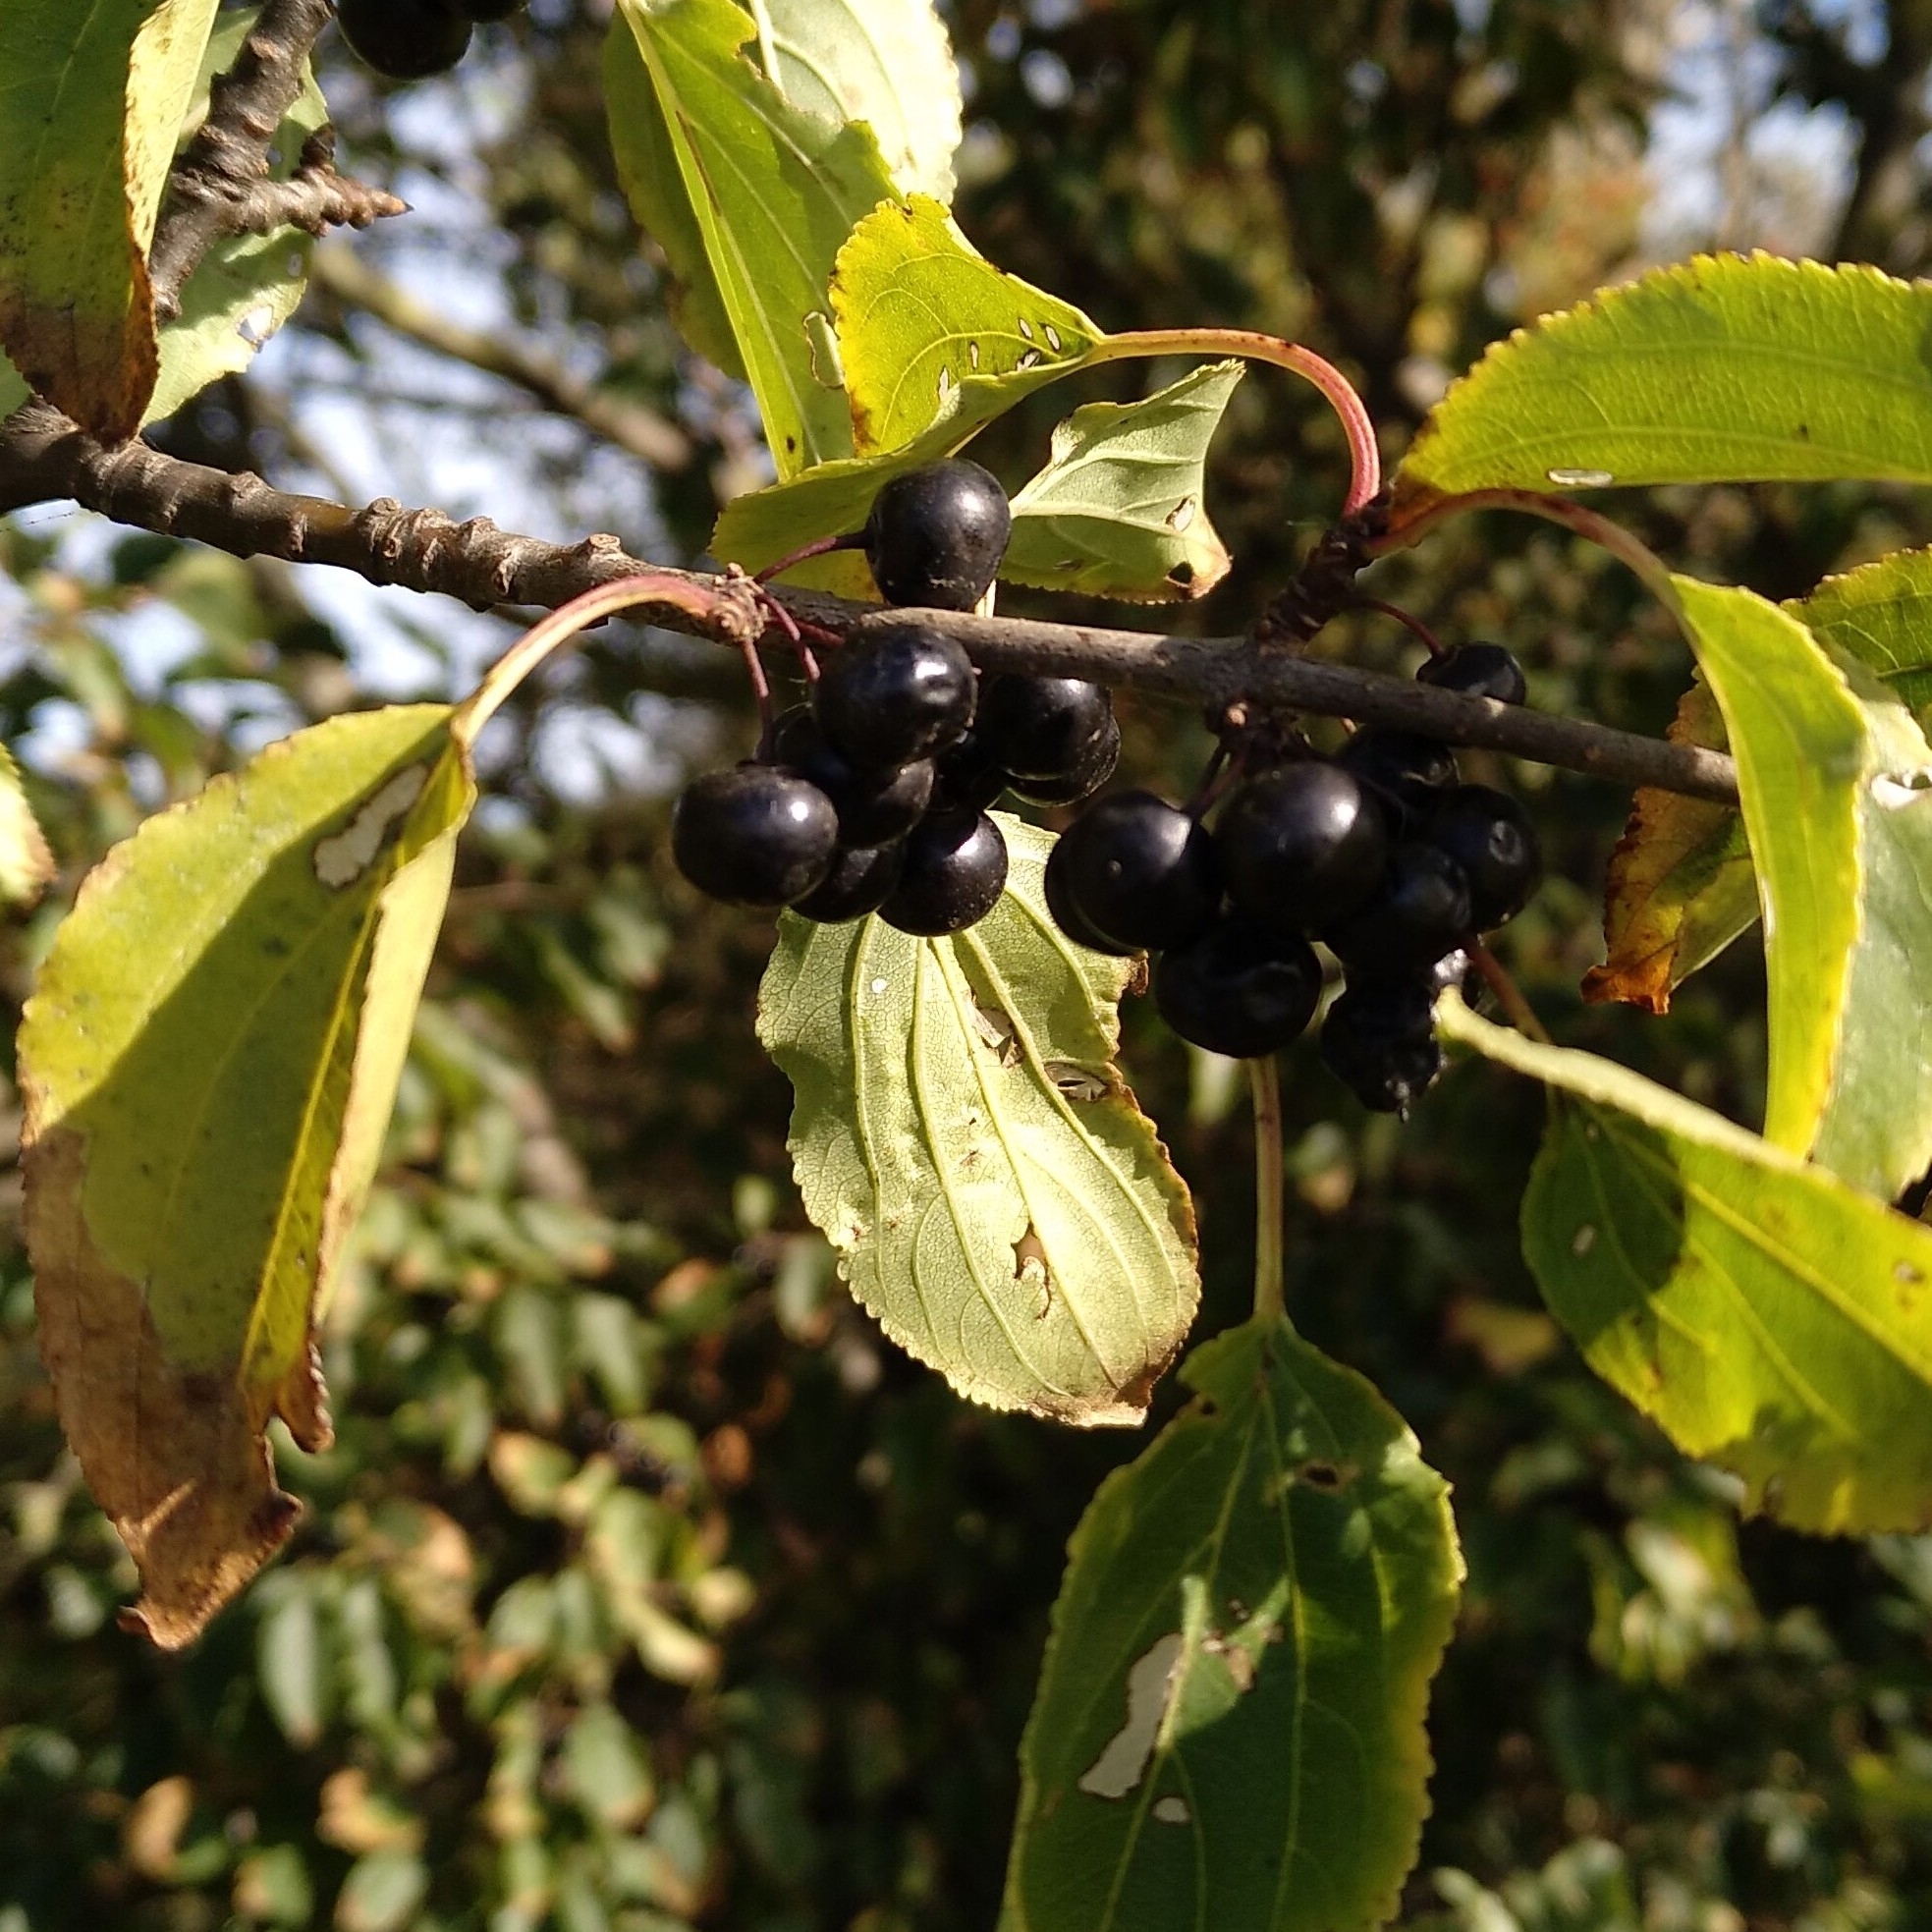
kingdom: Plantae
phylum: Tracheophyta
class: Magnoliopsida
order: Rosales
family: Rhamnaceae
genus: Rhamnus
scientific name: Rhamnus cathartica
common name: Common buckthorn
